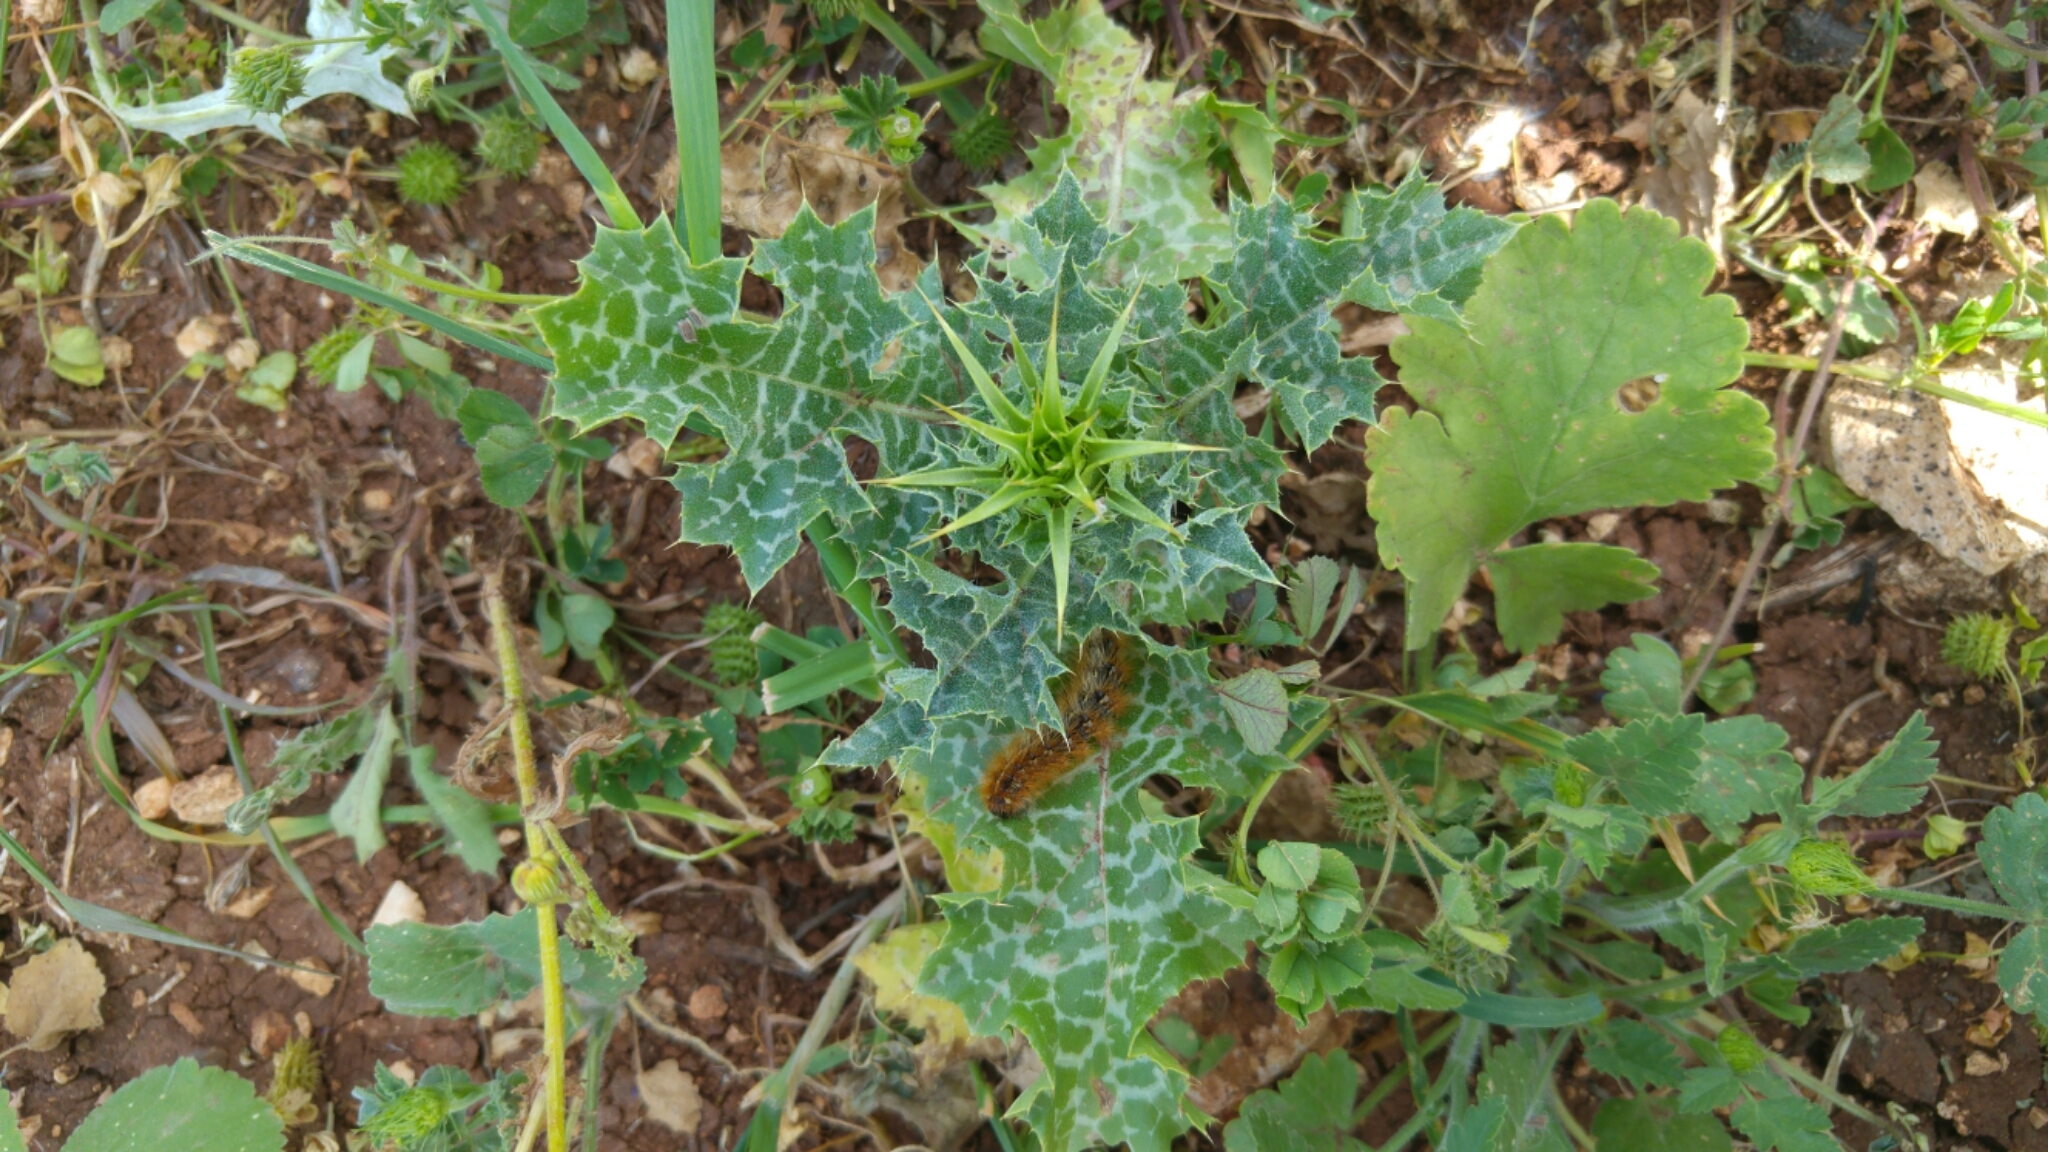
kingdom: Plantae
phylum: Tracheophyta
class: Magnoliopsida
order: Asterales
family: Asteraceae
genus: Silybum
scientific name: Silybum marianum
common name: Milk thistle
